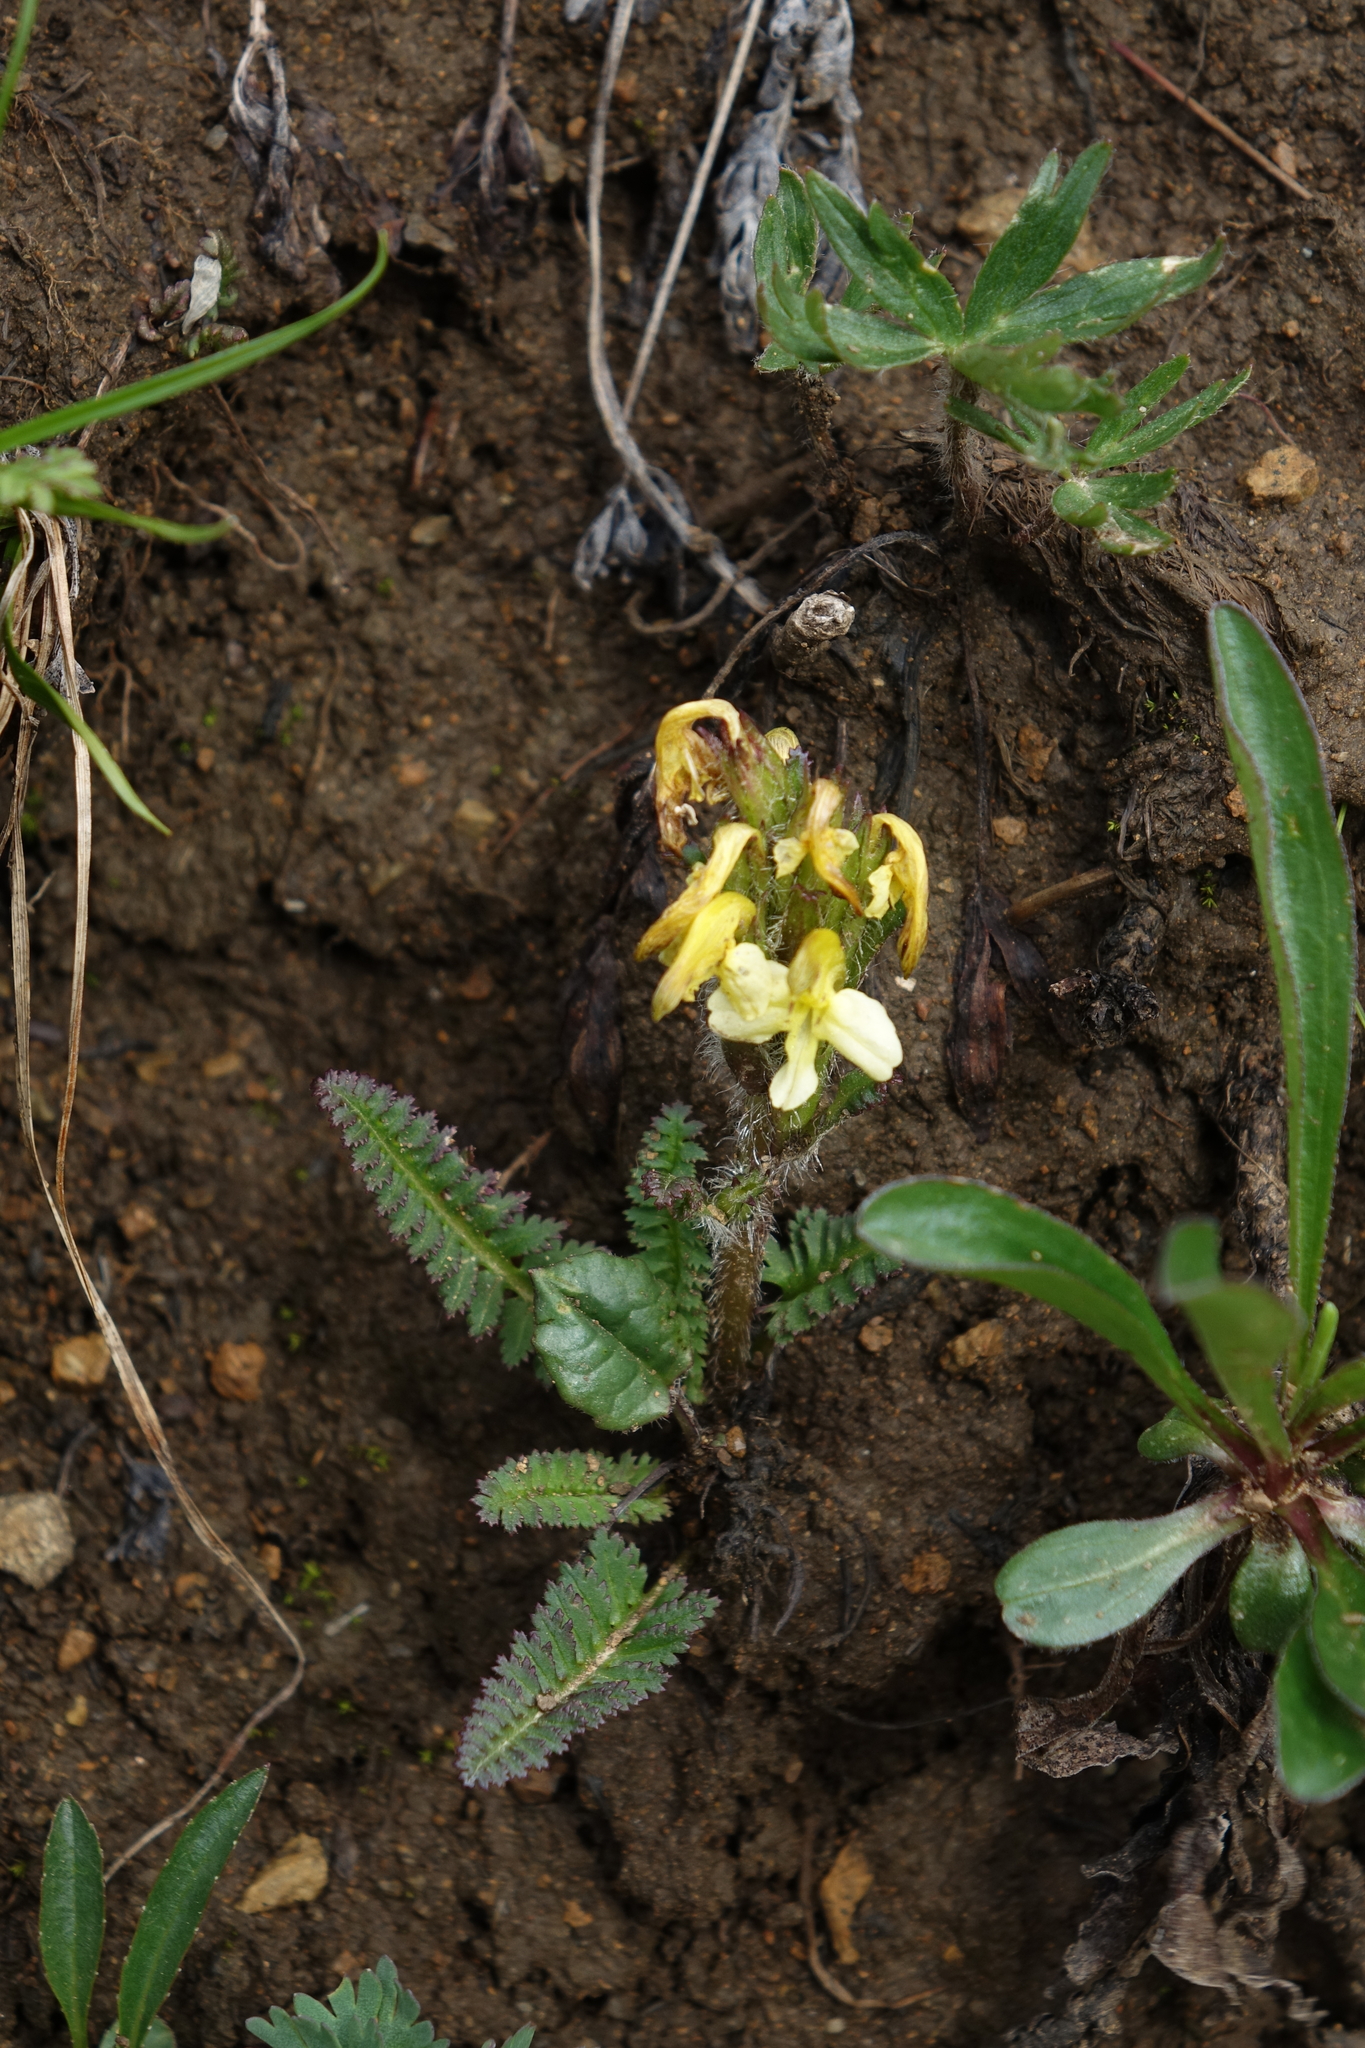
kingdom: Plantae
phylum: Tracheophyta
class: Magnoliopsida
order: Lamiales
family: Orobanchaceae
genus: Pedicularis
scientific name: Pedicularis oederi
